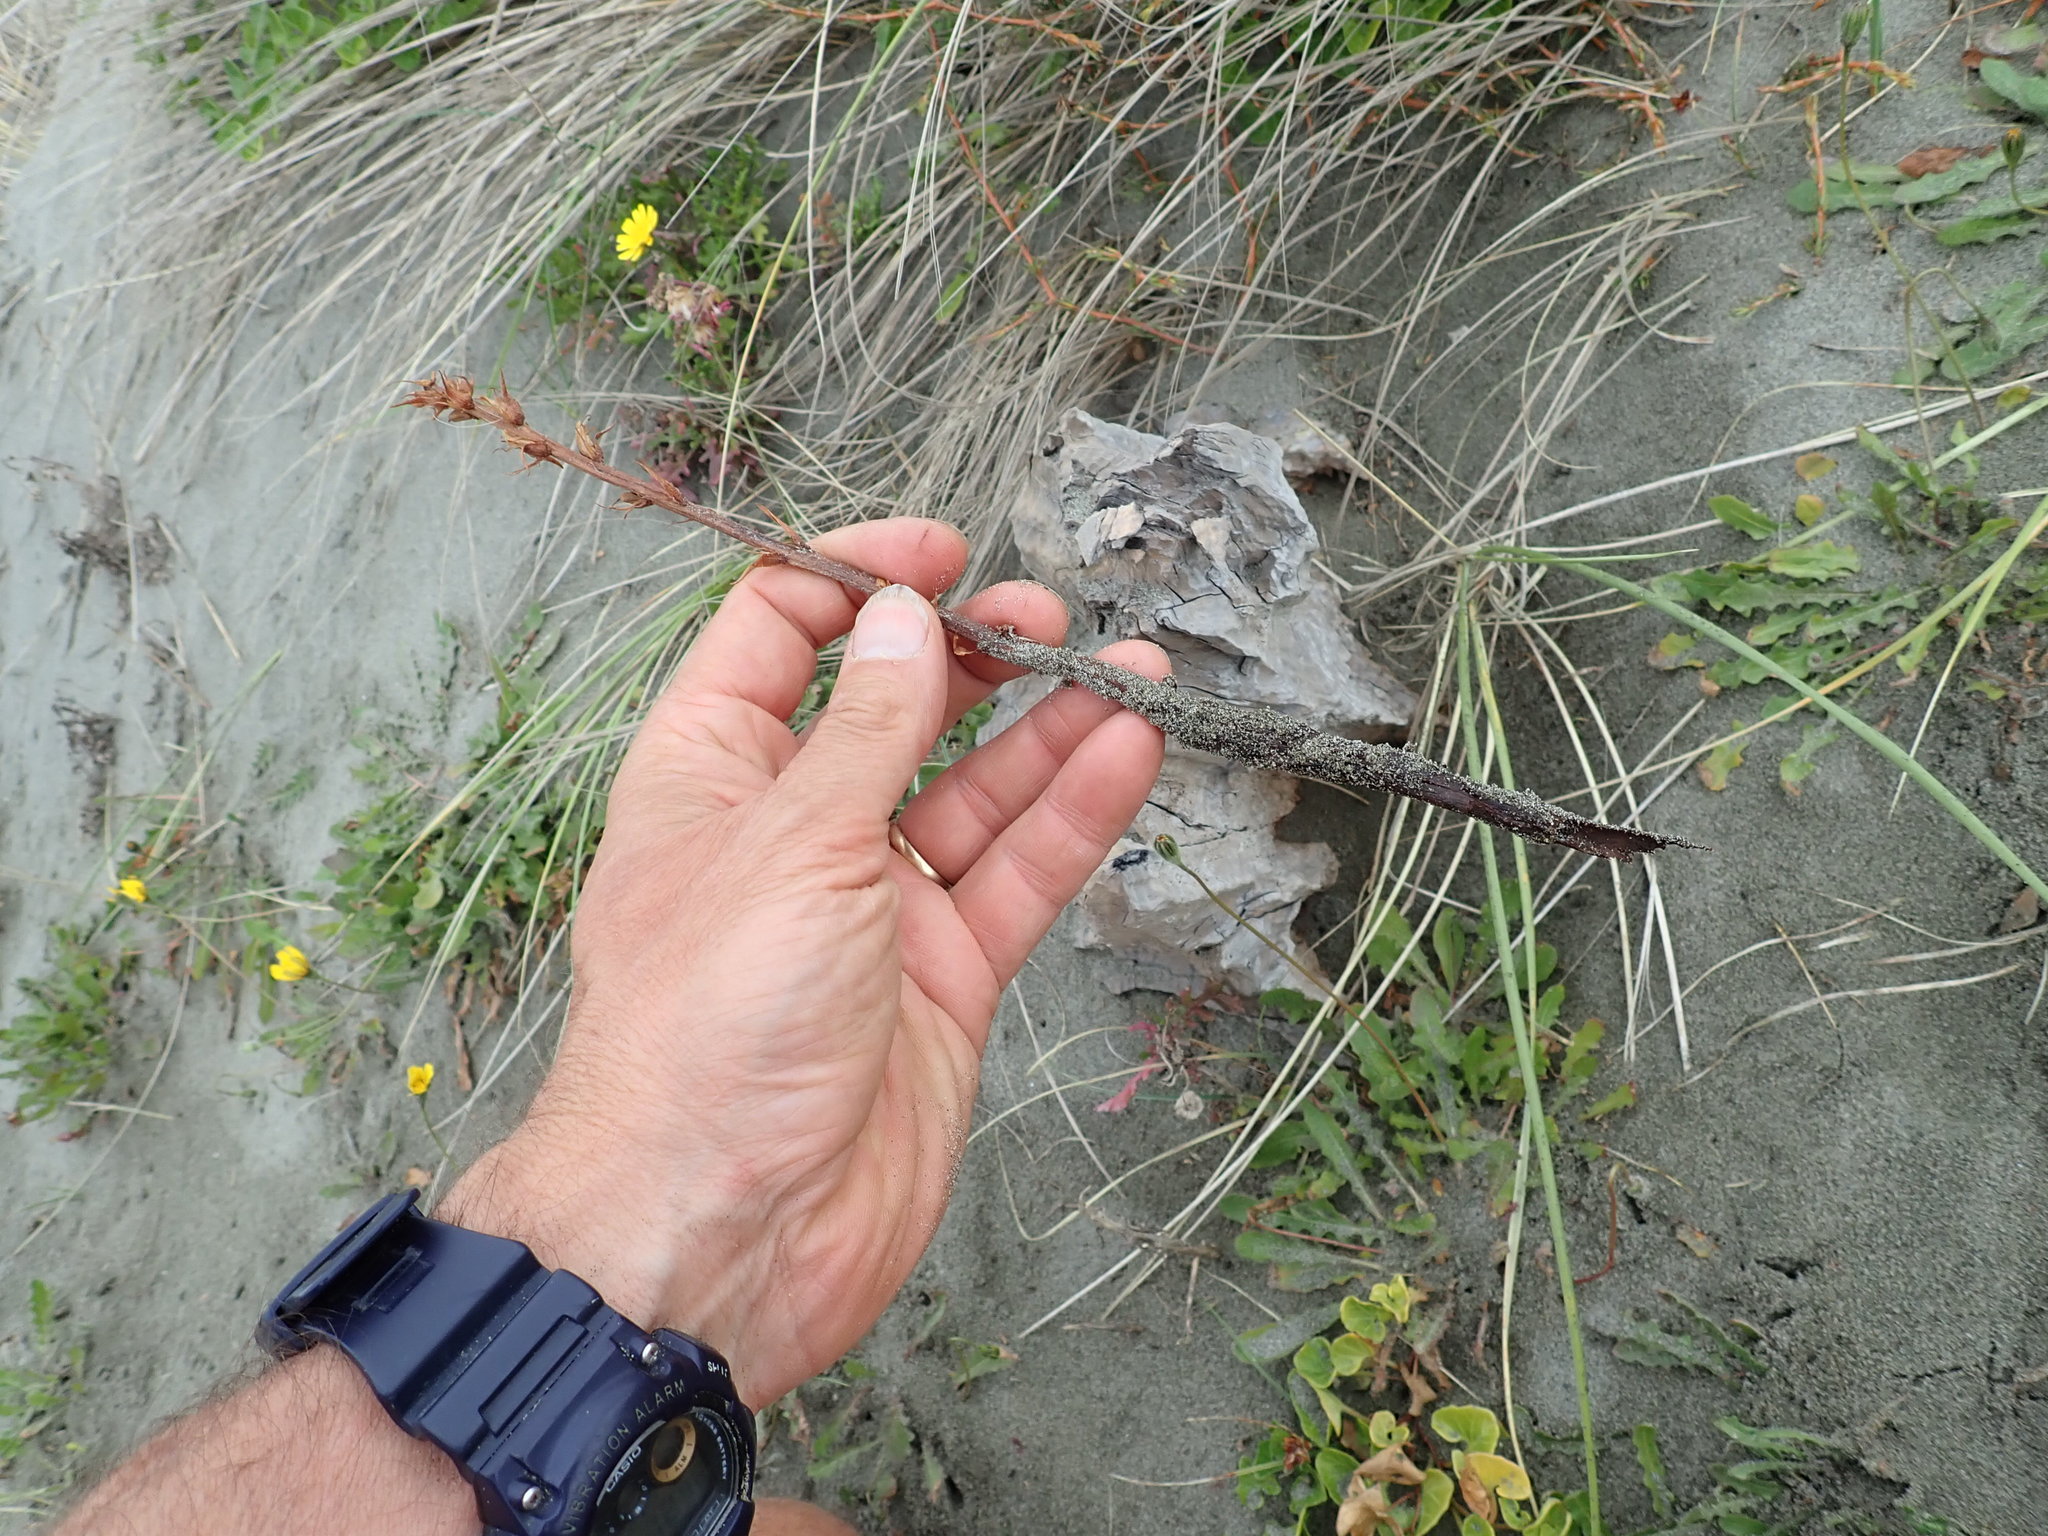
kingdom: Plantae
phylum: Tracheophyta
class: Magnoliopsida
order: Lamiales
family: Orobanchaceae
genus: Orobanche
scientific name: Orobanche minor
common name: Common broomrape
